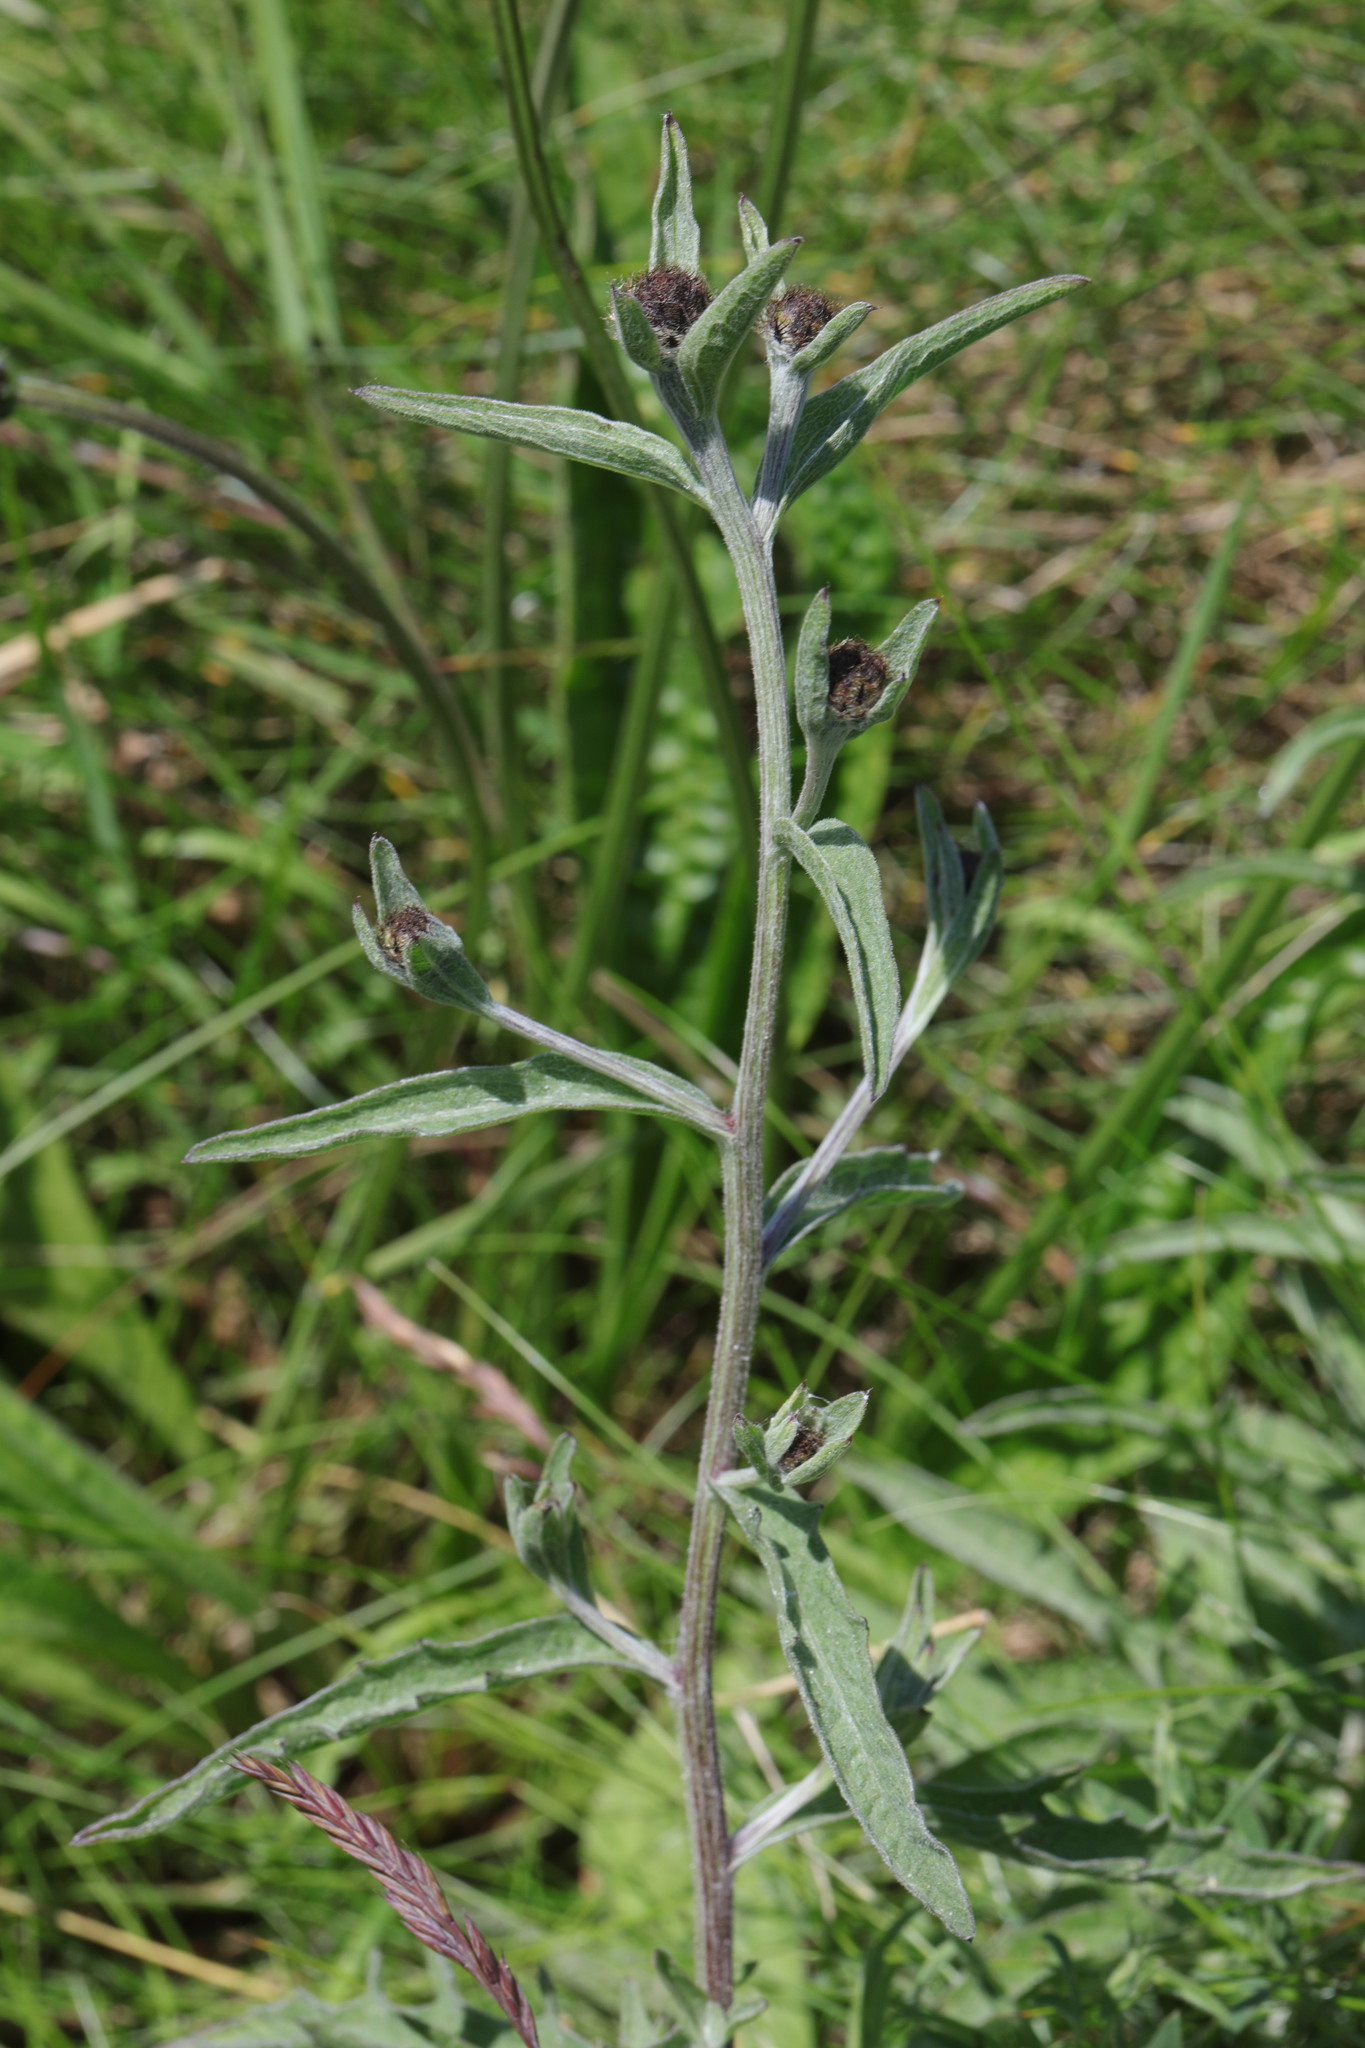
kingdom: Plantae
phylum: Tracheophyta
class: Magnoliopsida
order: Asterales
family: Asteraceae
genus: Centaurea
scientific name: Centaurea nigra
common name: Lesser knapweed
